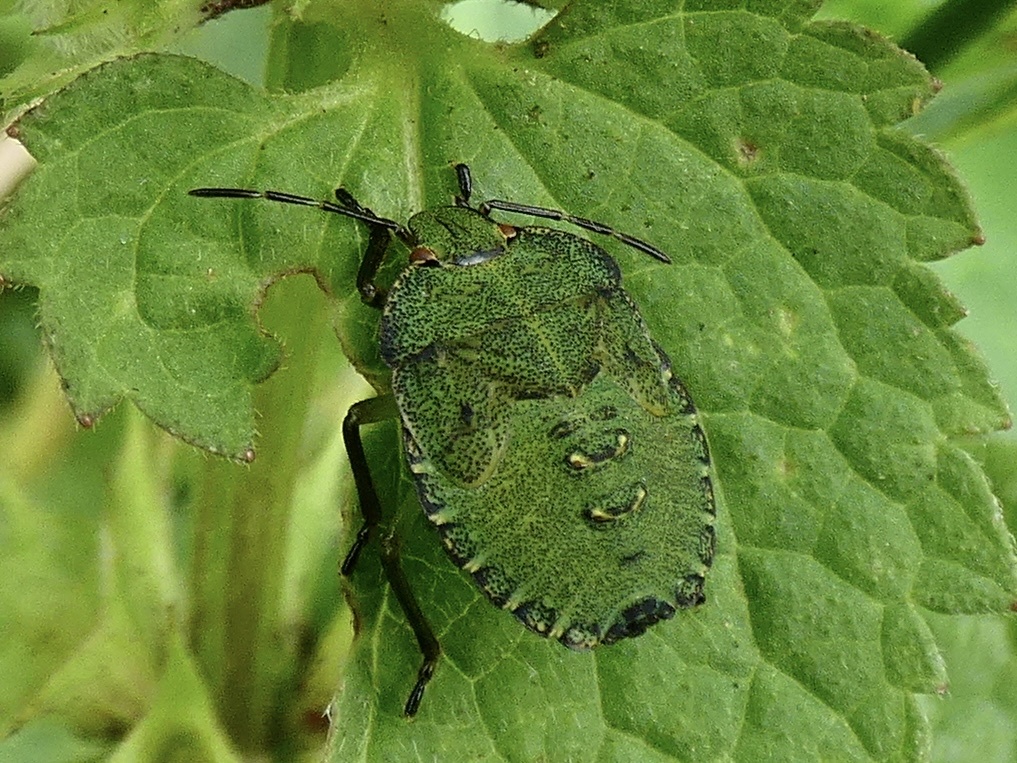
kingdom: Animalia
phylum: Arthropoda
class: Insecta
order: Hemiptera
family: Pentatomidae
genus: Palomena
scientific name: Palomena prasina
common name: Green shieldbug
